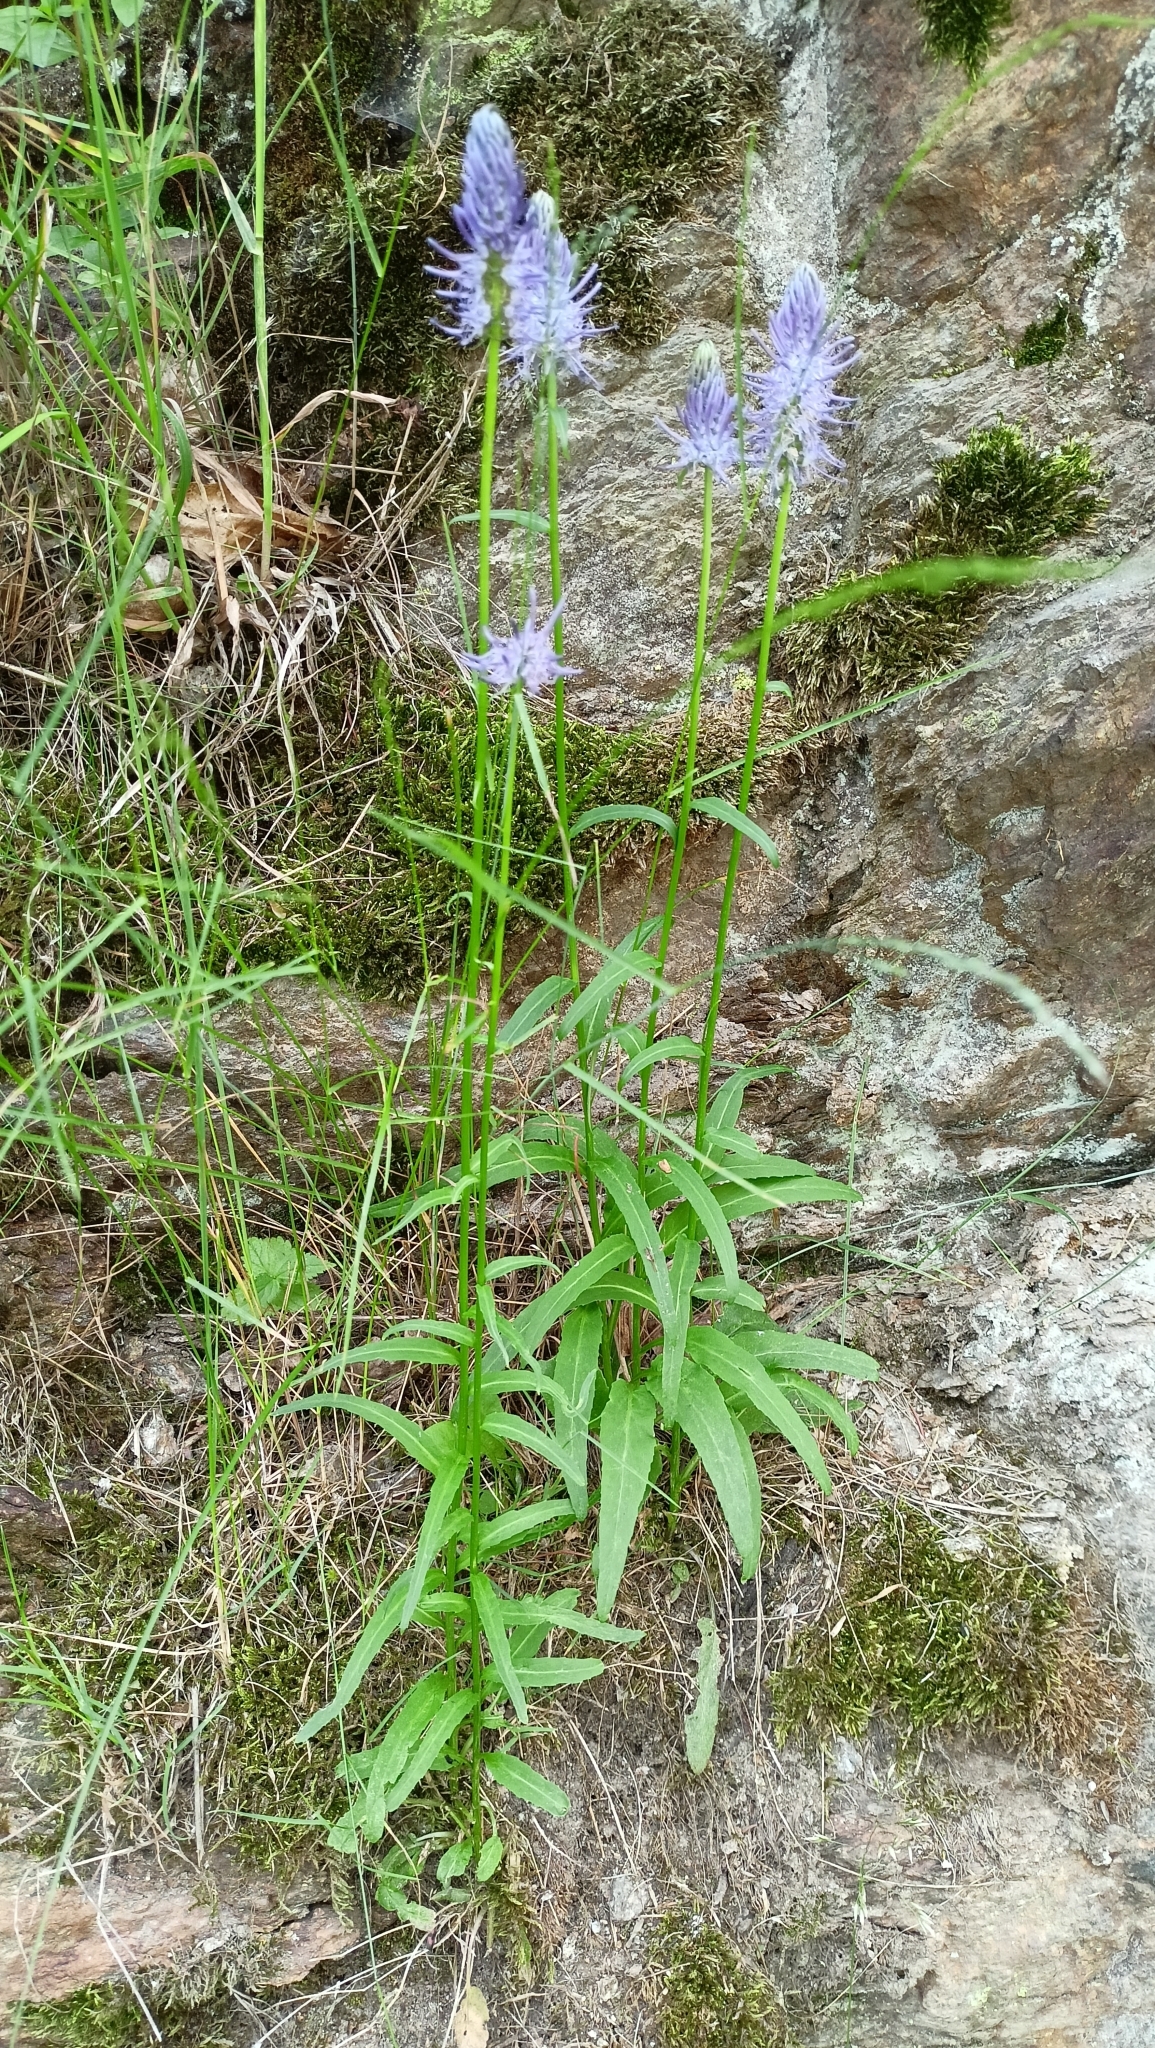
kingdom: Plantae
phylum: Tracheophyta
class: Magnoliopsida
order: Asterales
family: Campanulaceae
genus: Phyteuma
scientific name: Phyteuma betonicifolium
